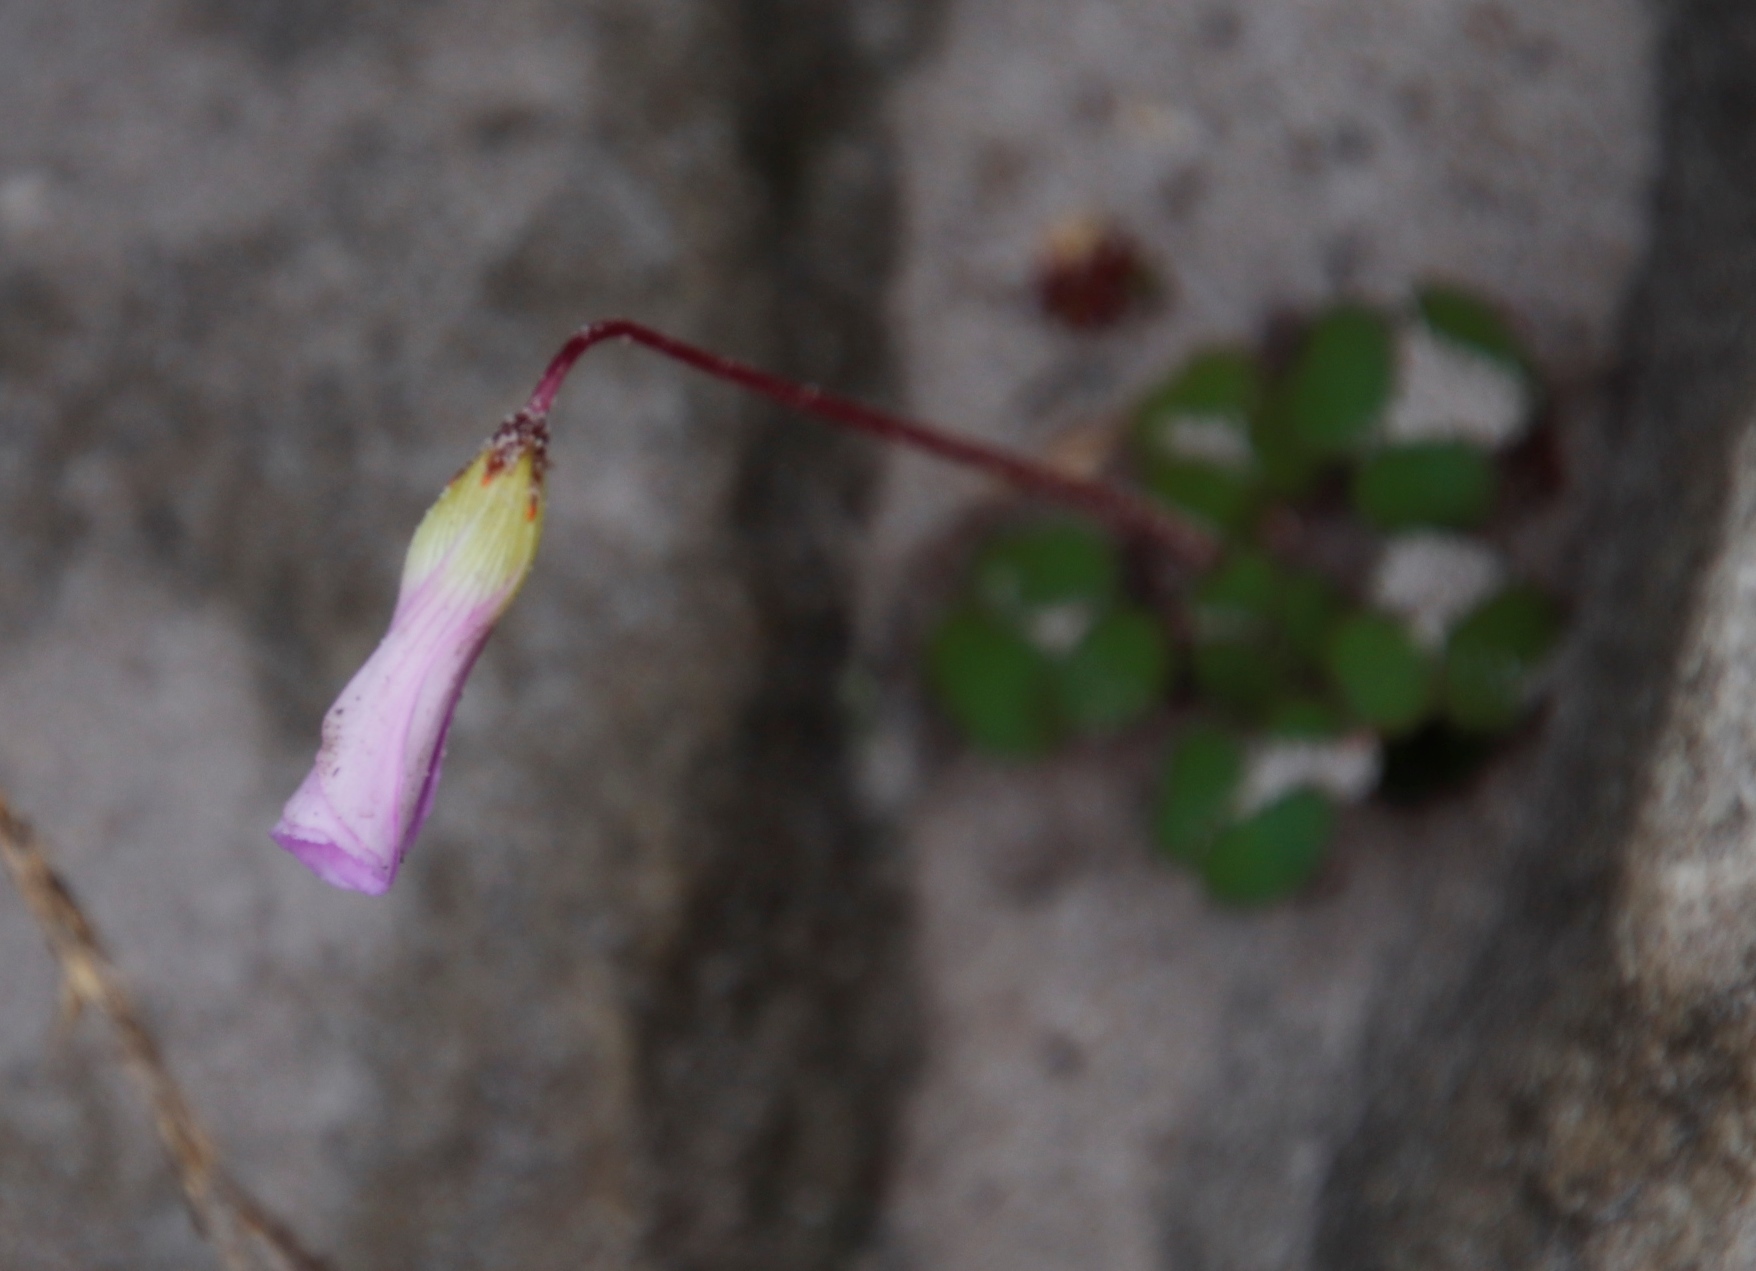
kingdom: Plantae
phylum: Tracheophyta
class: Magnoliopsida
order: Oxalidales
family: Oxalidaceae
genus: Oxalis
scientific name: Oxalis commutata
